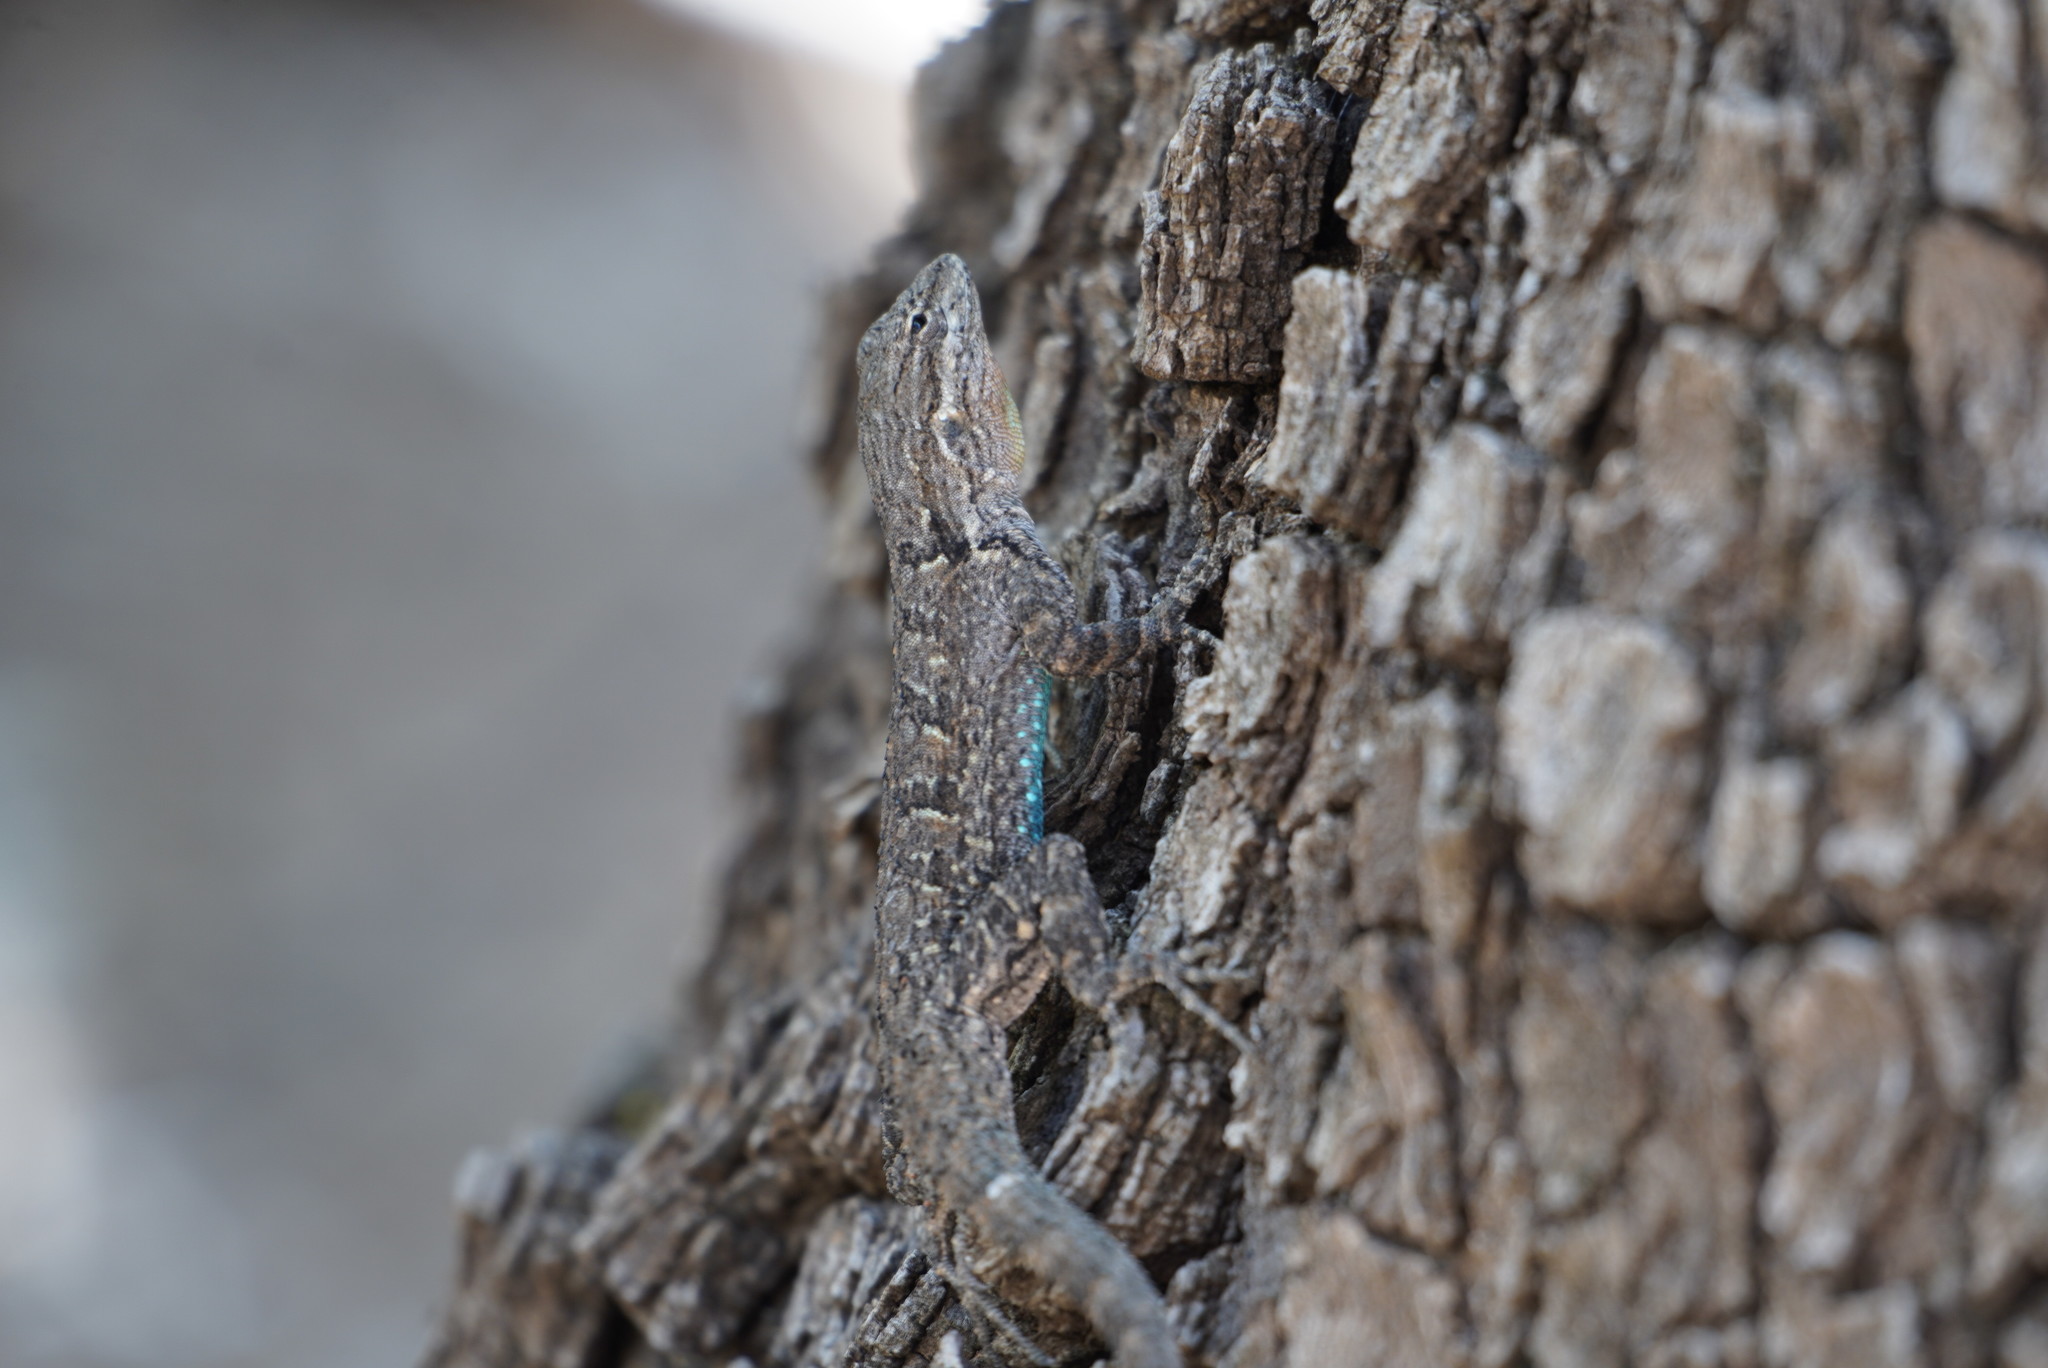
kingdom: Animalia
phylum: Chordata
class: Squamata
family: Phrynosomatidae
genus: Urosaurus
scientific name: Urosaurus ornatus
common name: Ornate tree lizard
